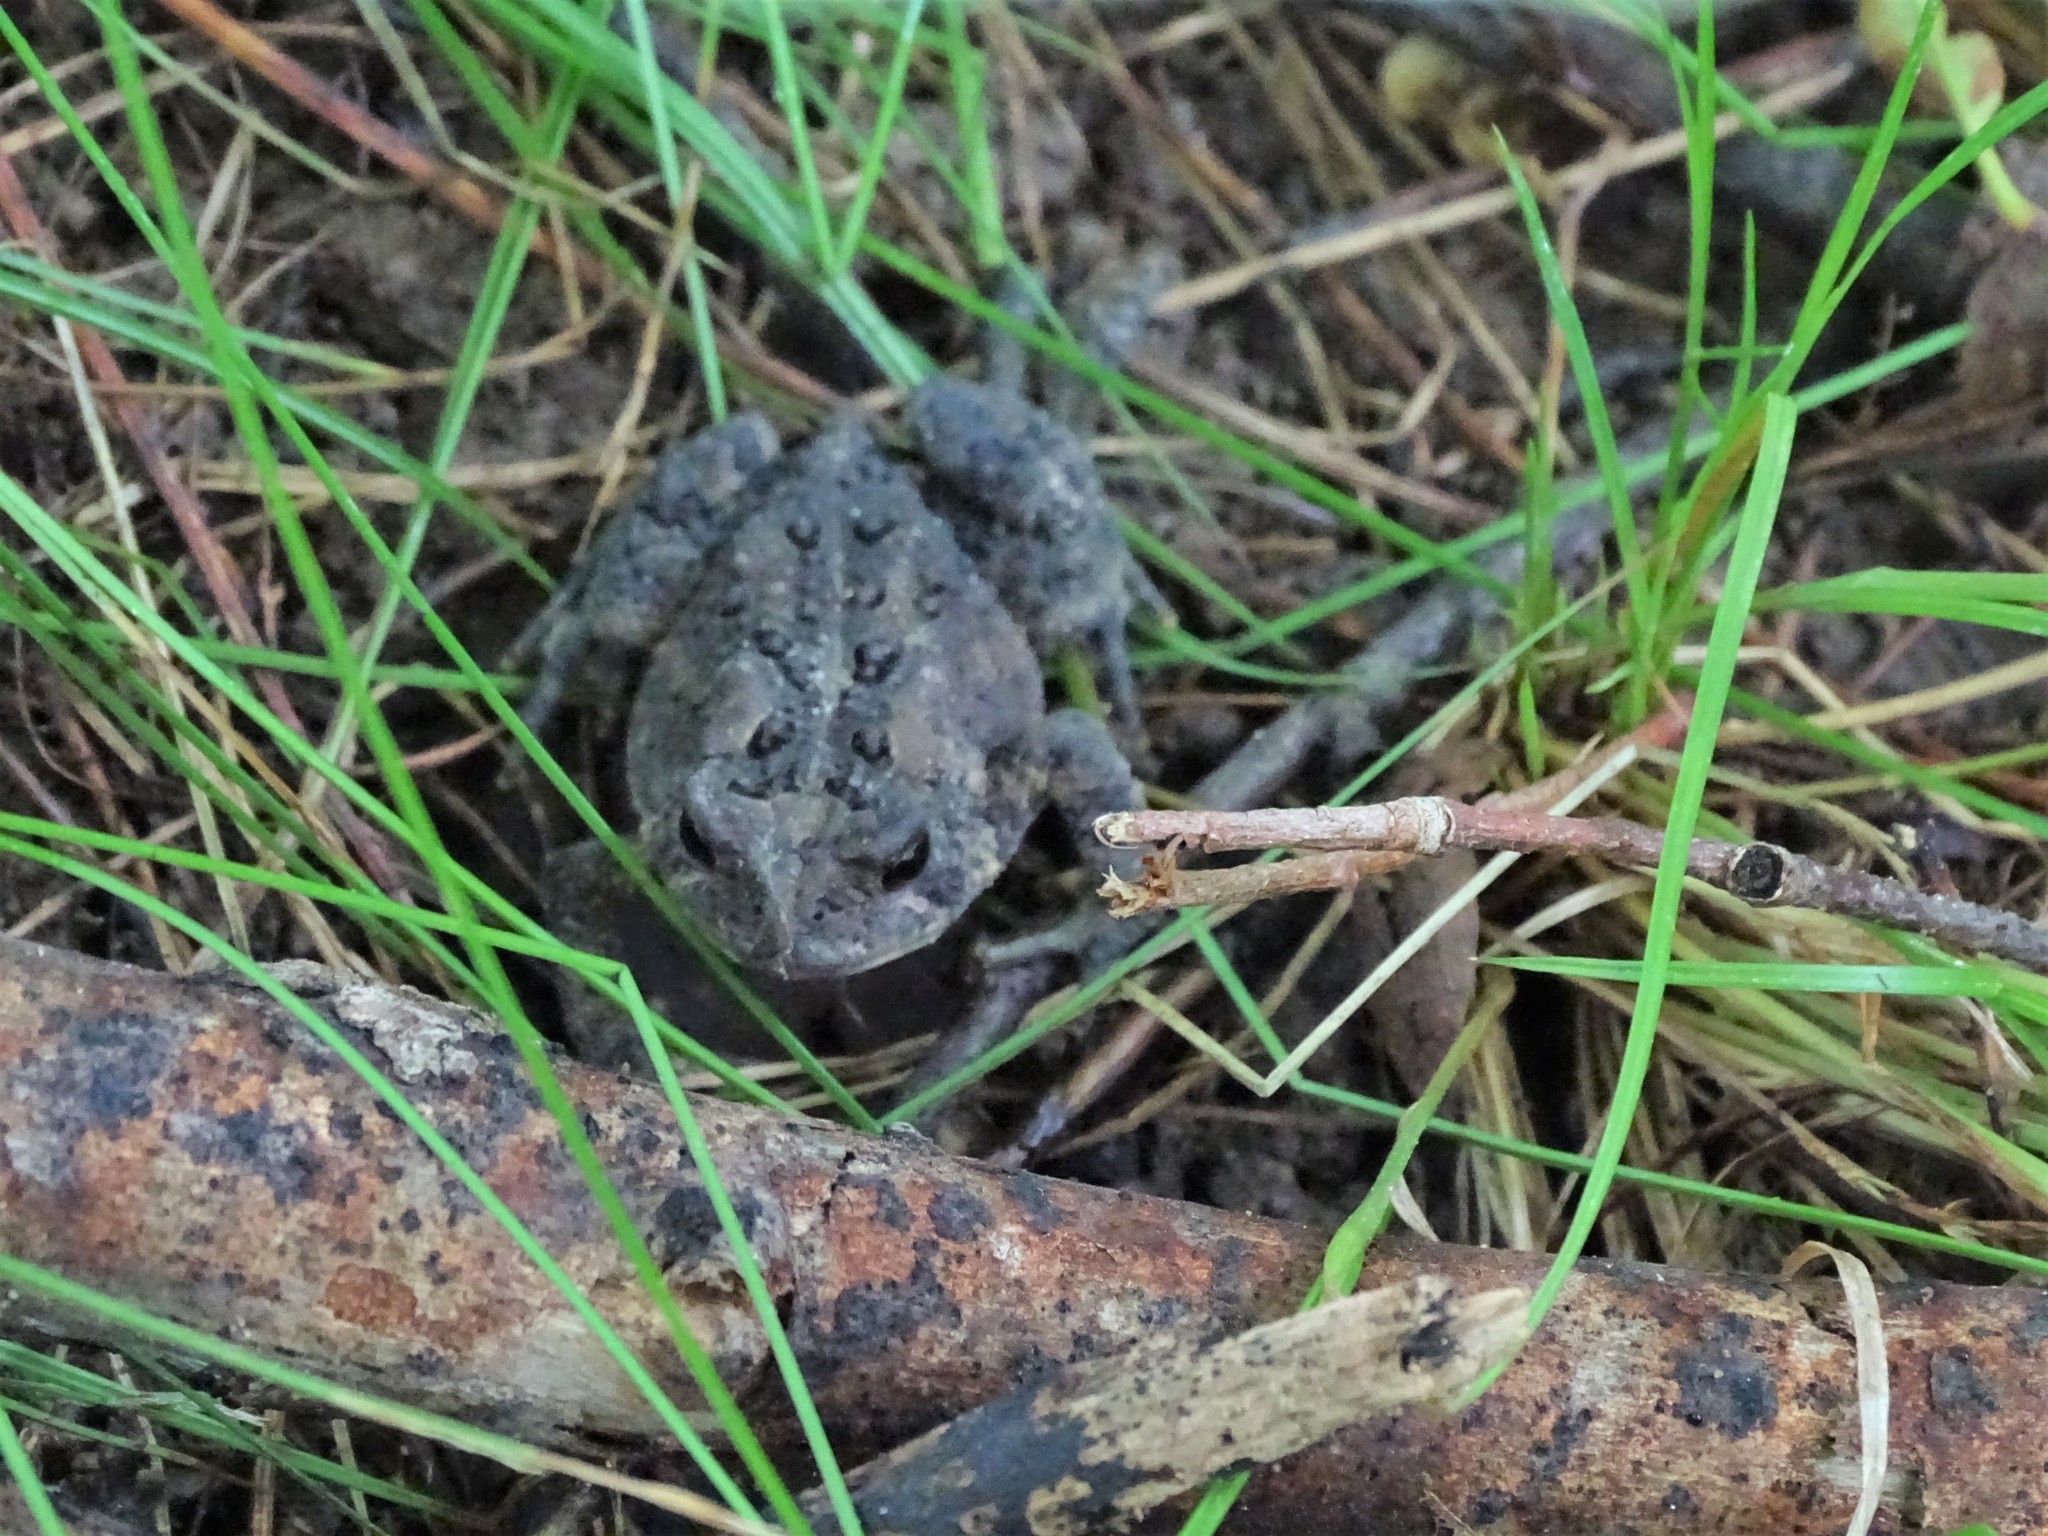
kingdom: Animalia
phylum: Chordata
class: Amphibia
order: Anura
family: Bufonidae
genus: Anaxyrus
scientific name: Anaxyrus americanus
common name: American toad
